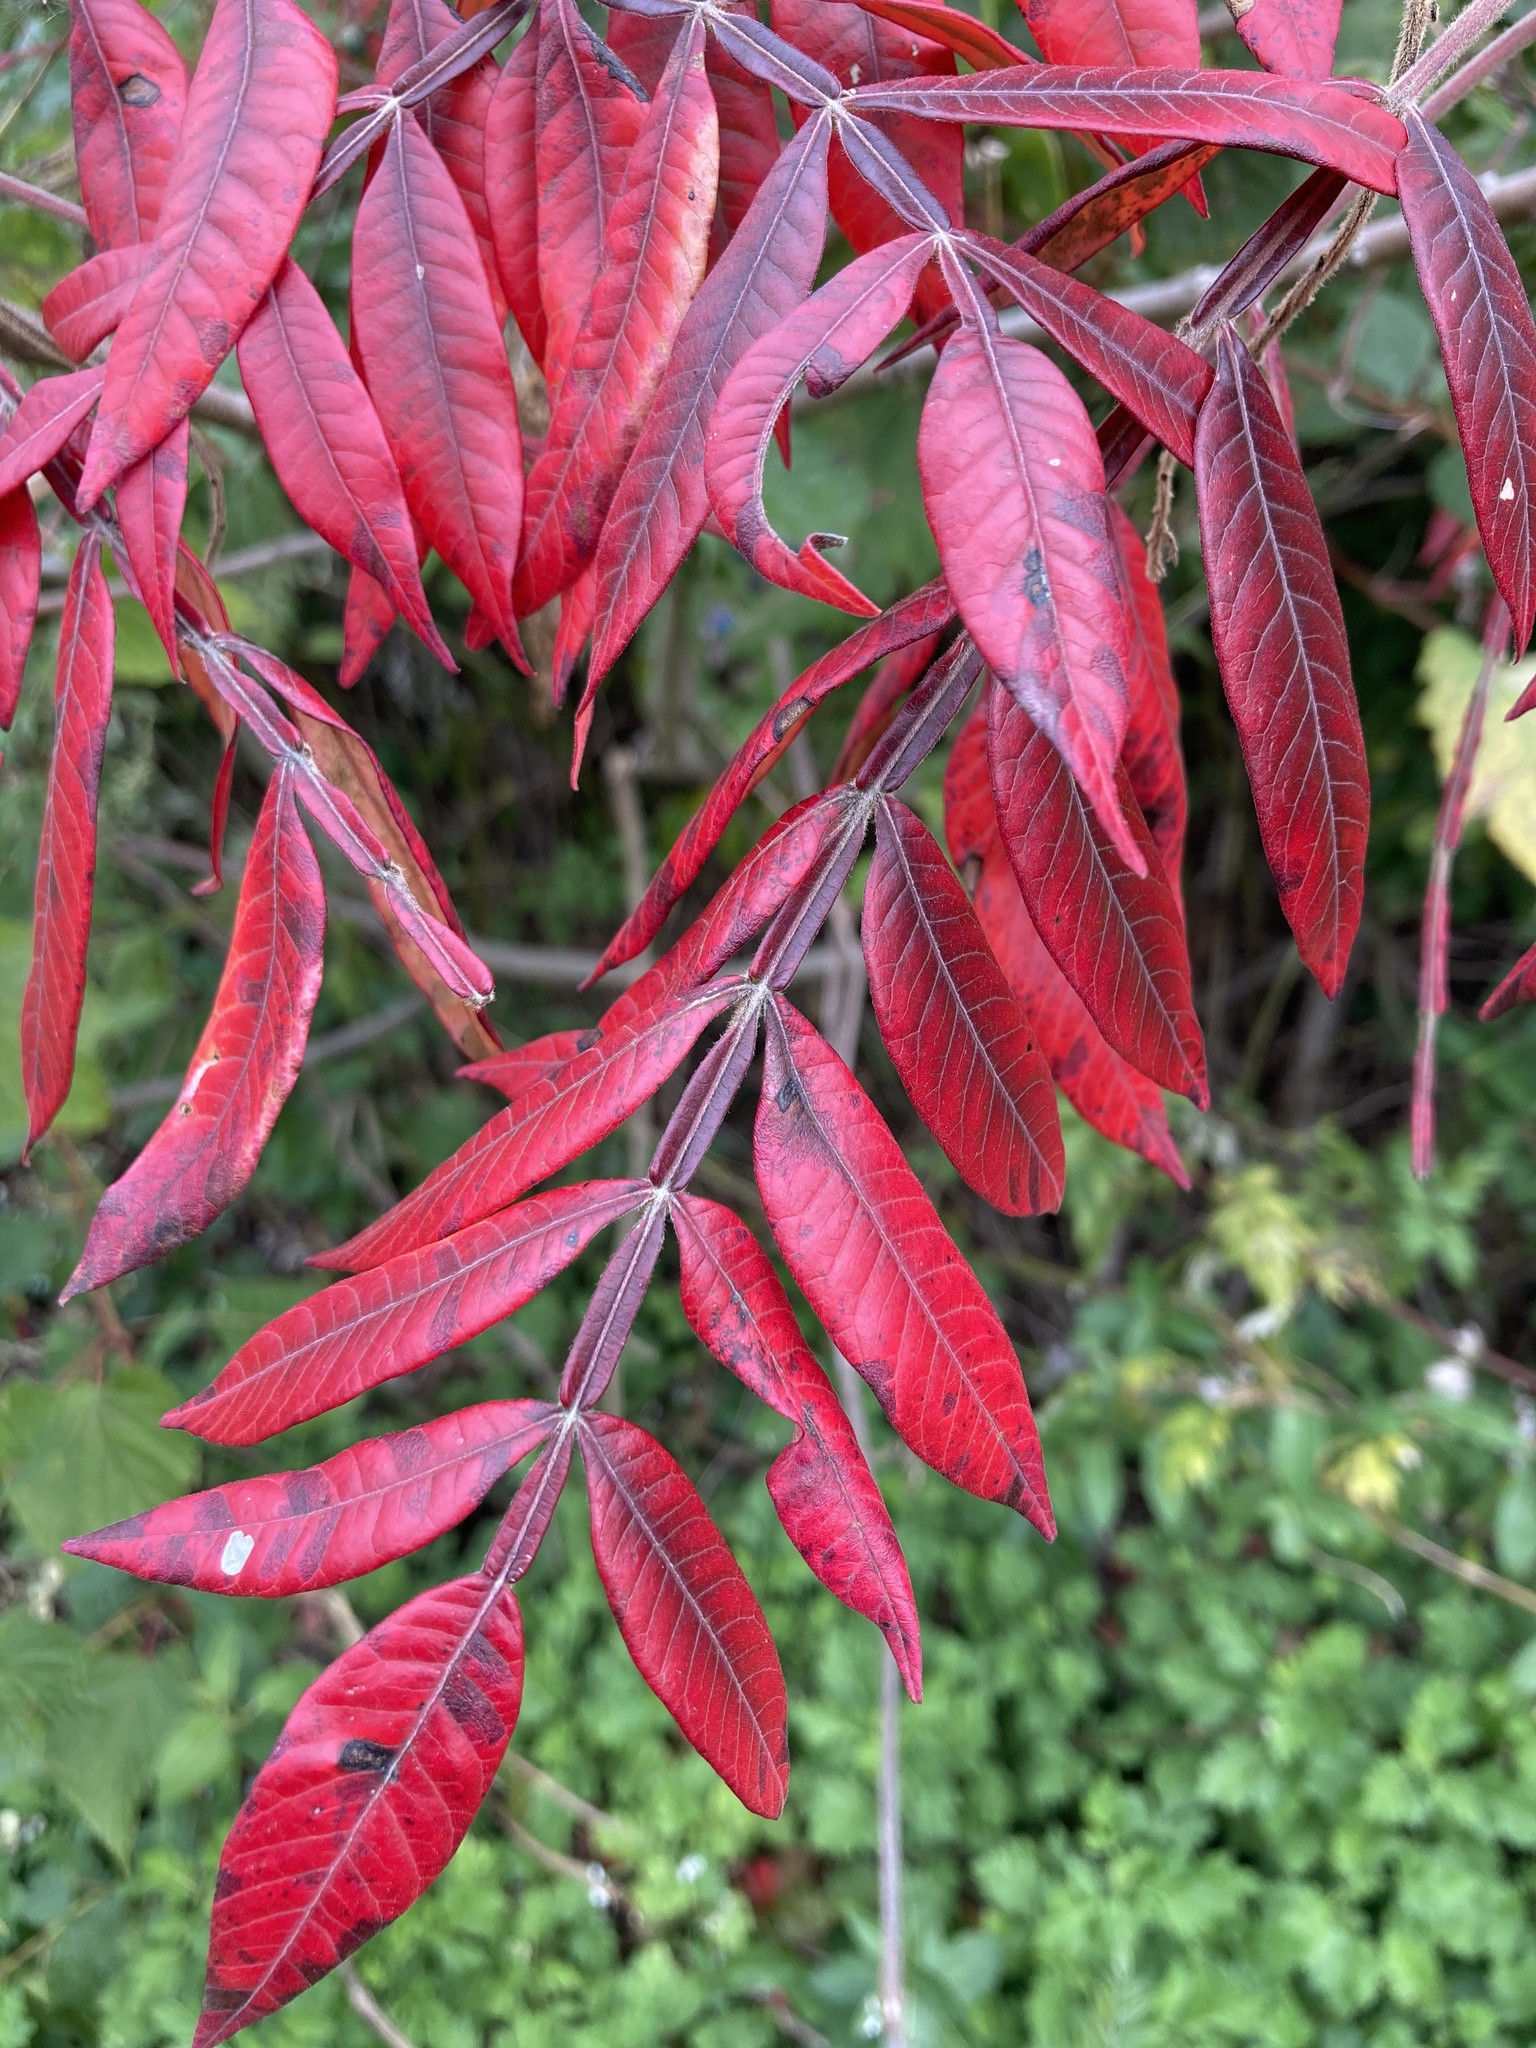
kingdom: Plantae
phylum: Tracheophyta
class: Magnoliopsida
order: Sapindales
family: Anacardiaceae
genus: Rhus
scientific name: Rhus copallina
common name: Shining sumac
